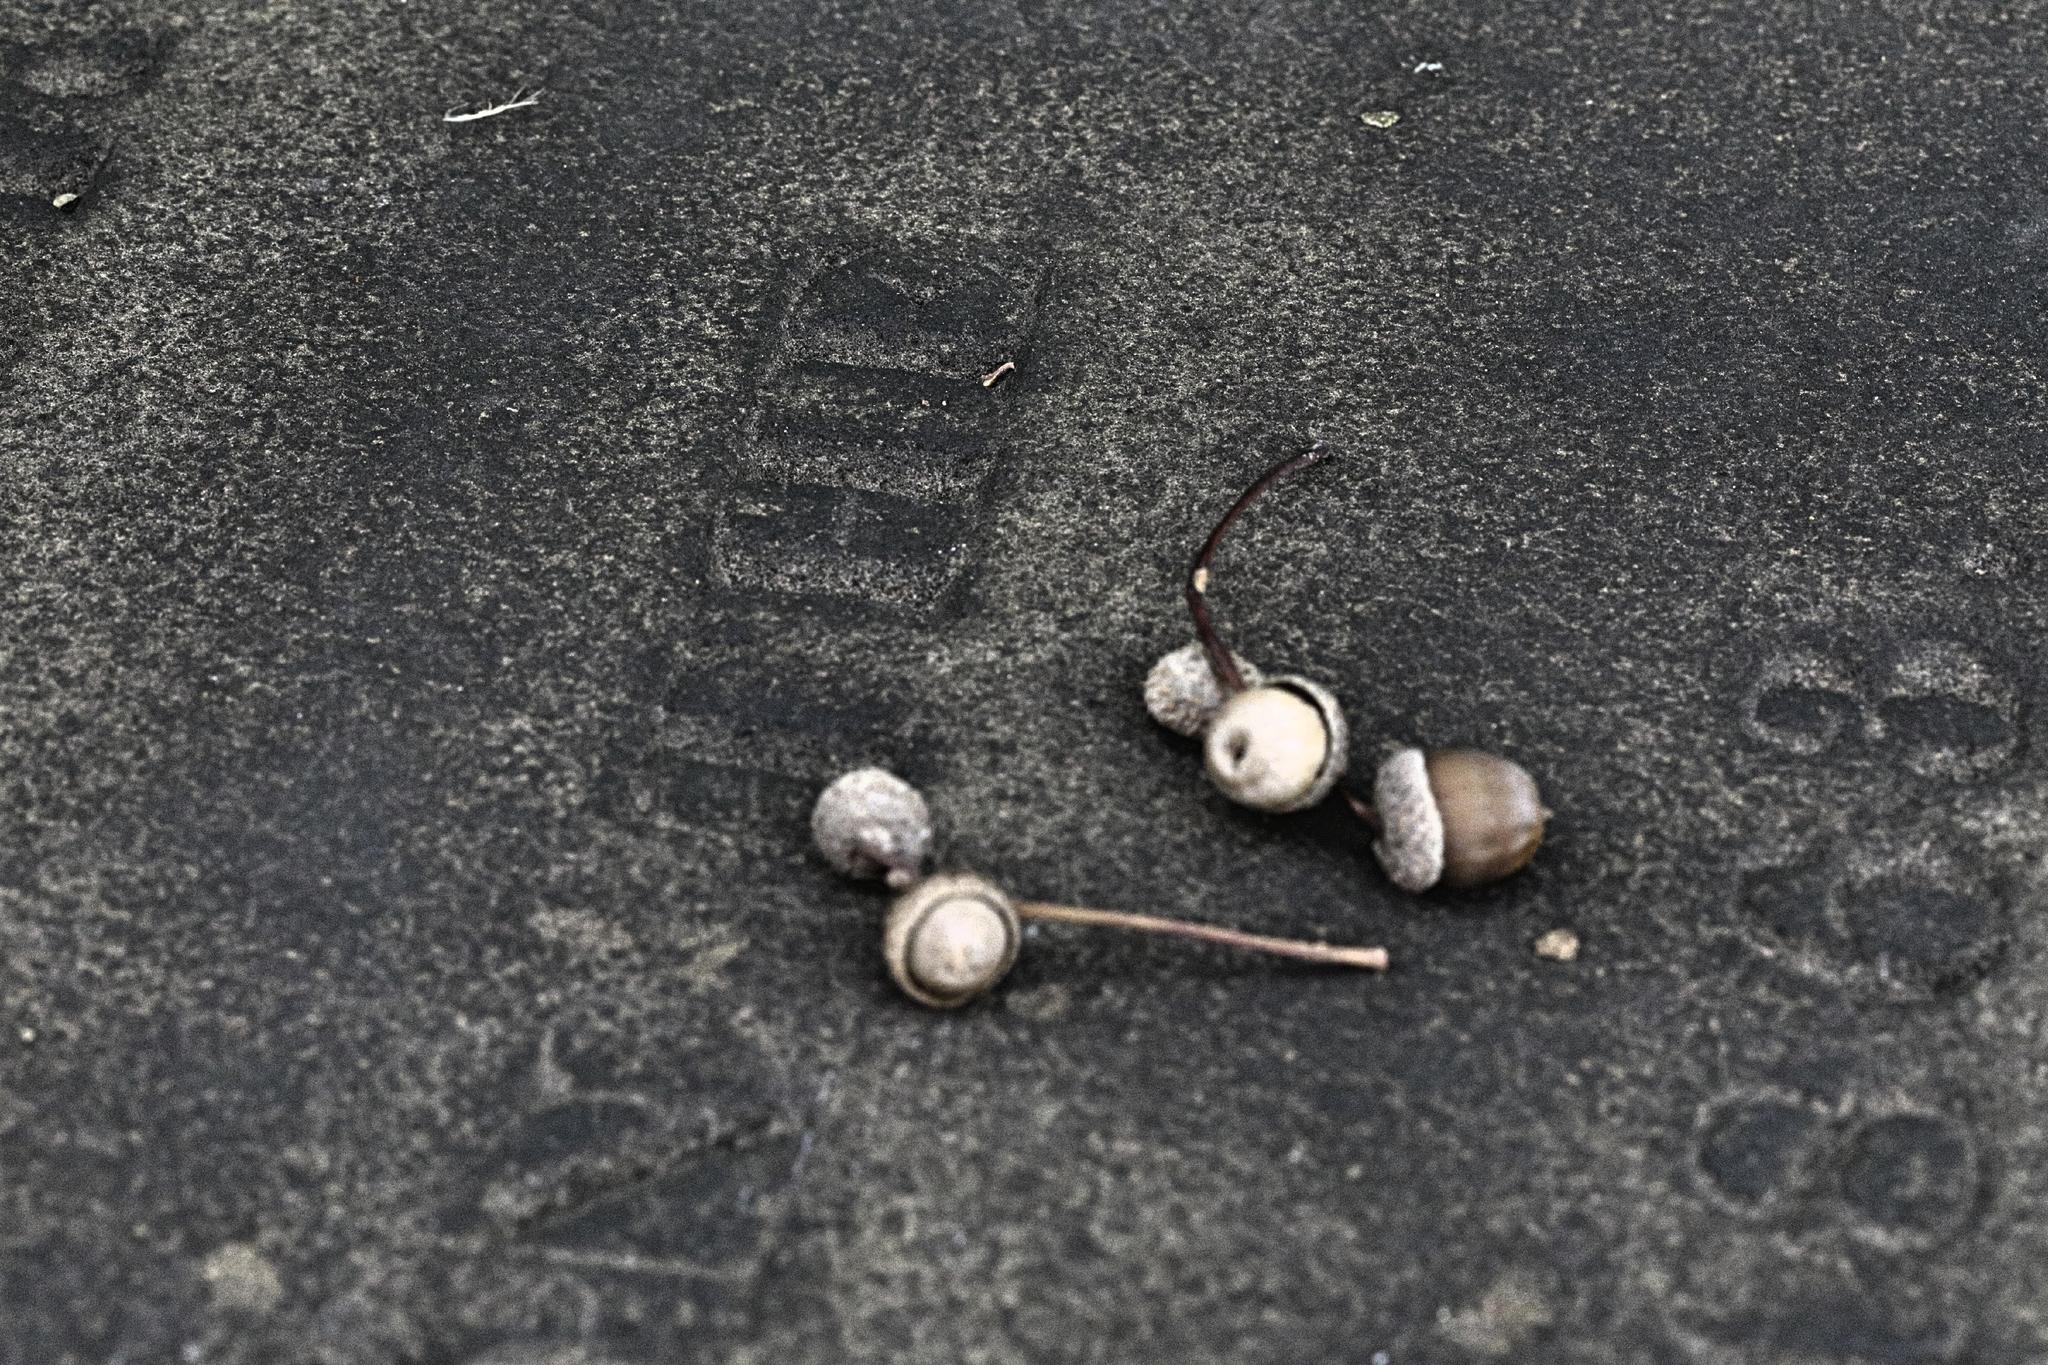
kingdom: Plantae
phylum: Tracheophyta
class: Magnoliopsida
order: Fagales
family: Fagaceae
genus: Quercus
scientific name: Quercus robur
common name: Pedunculate oak
